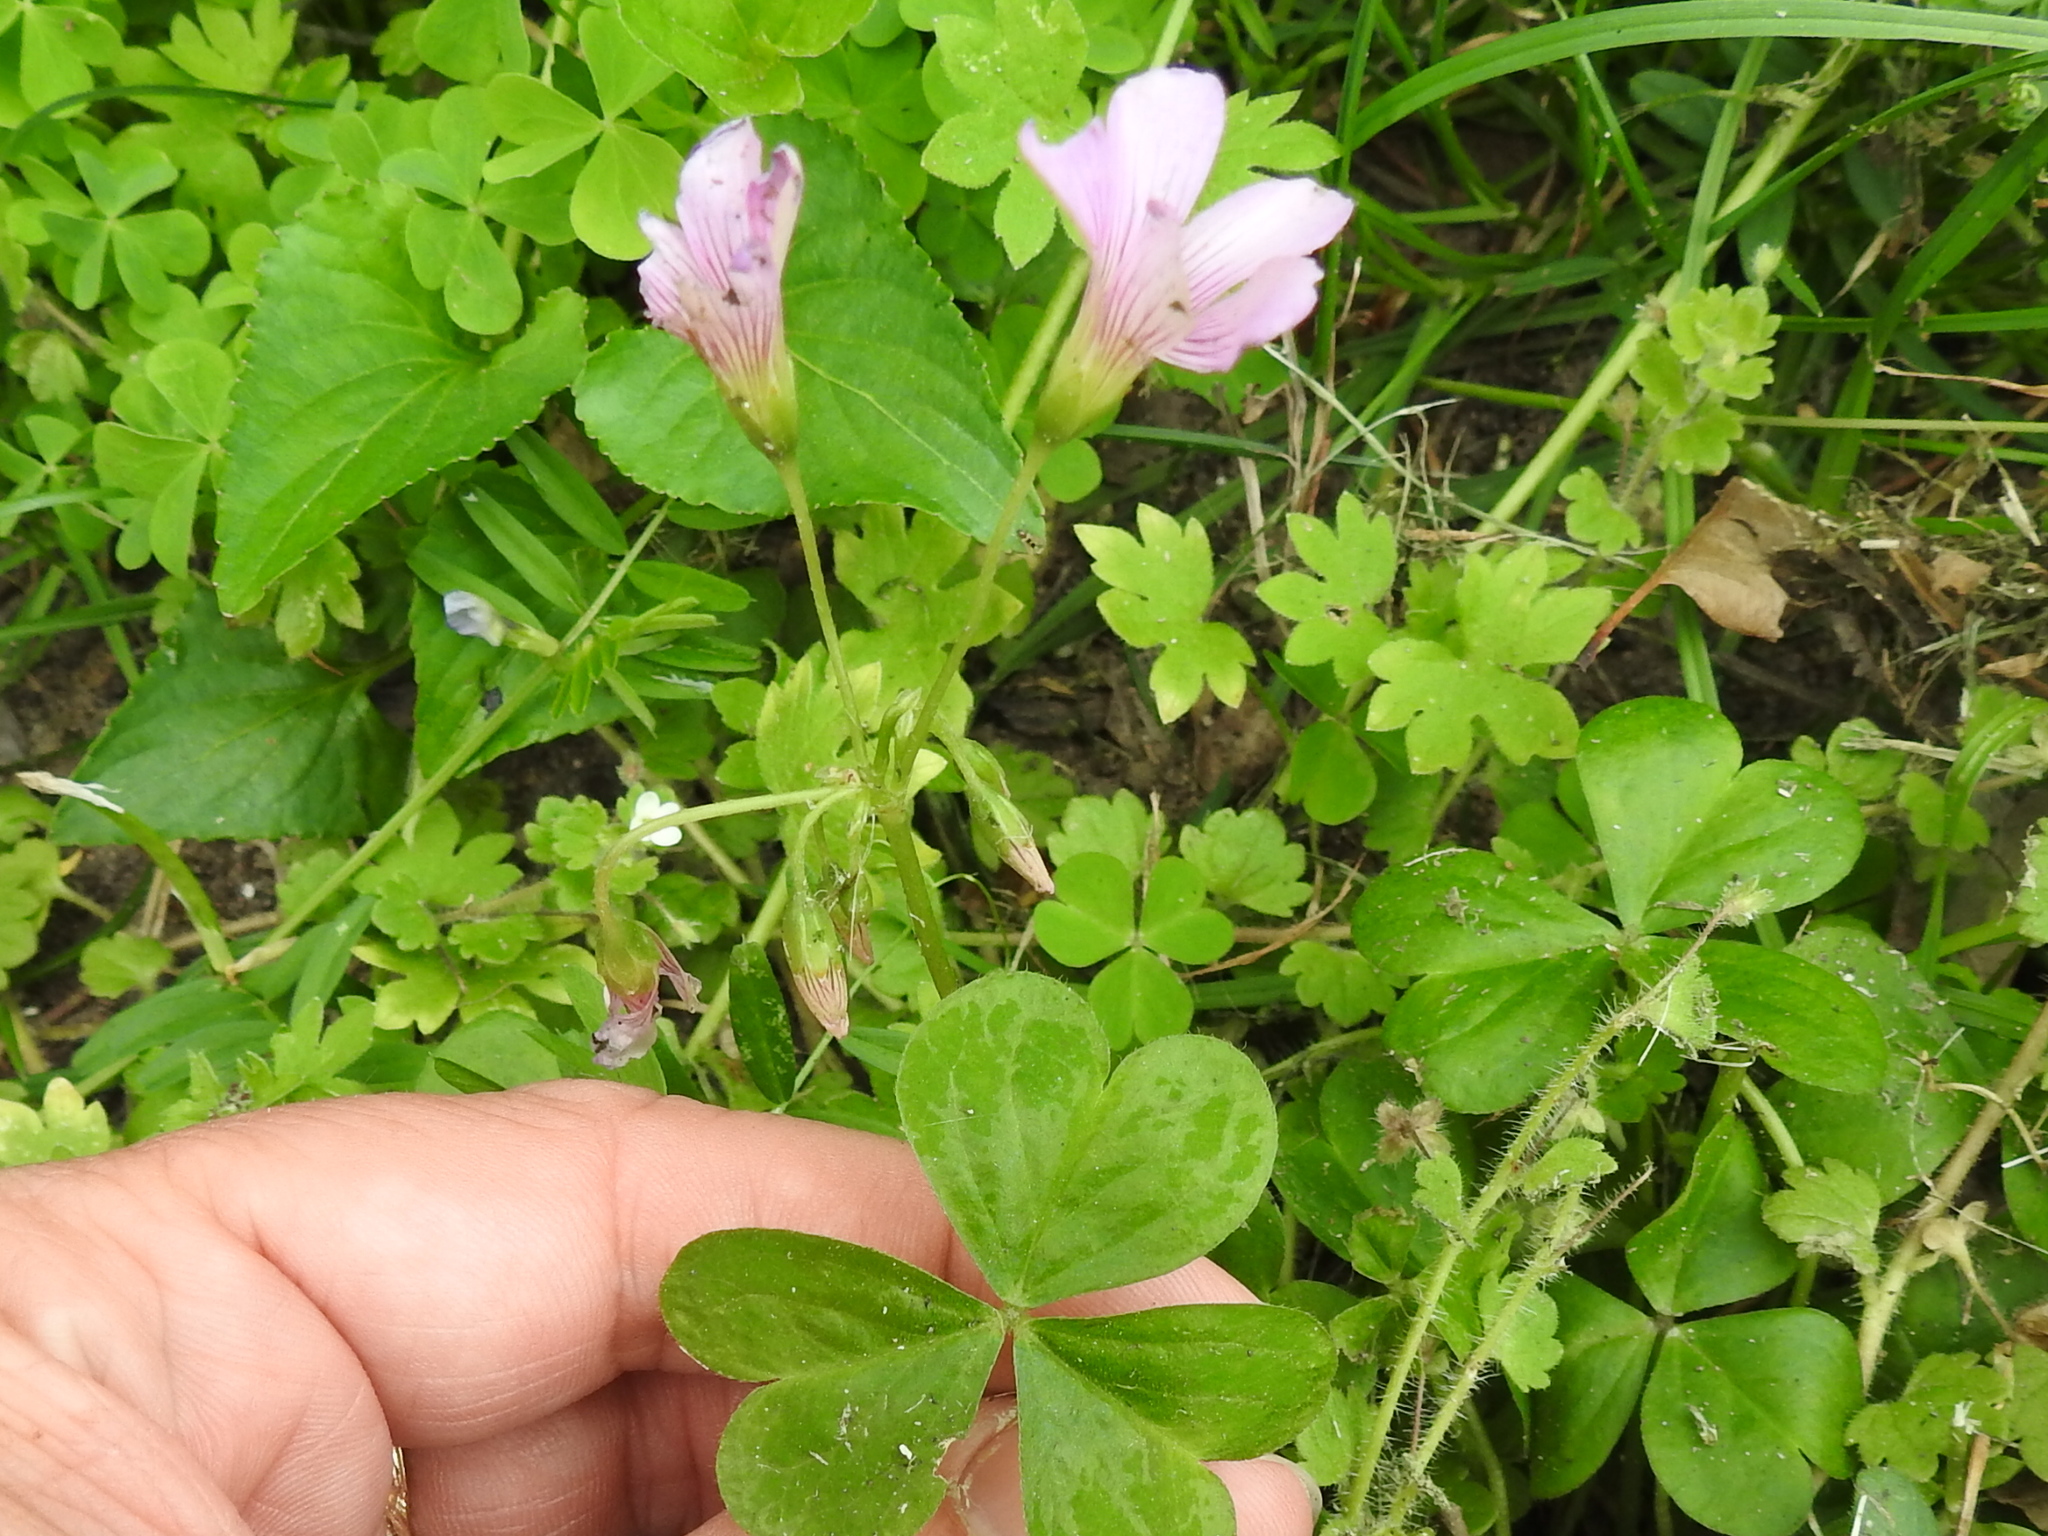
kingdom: Plantae
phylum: Tracheophyta
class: Magnoliopsida
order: Oxalidales
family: Oxalidaceae
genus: Oxalis
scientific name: Oxalis debilis
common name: Large-flowered pink-sorrel
